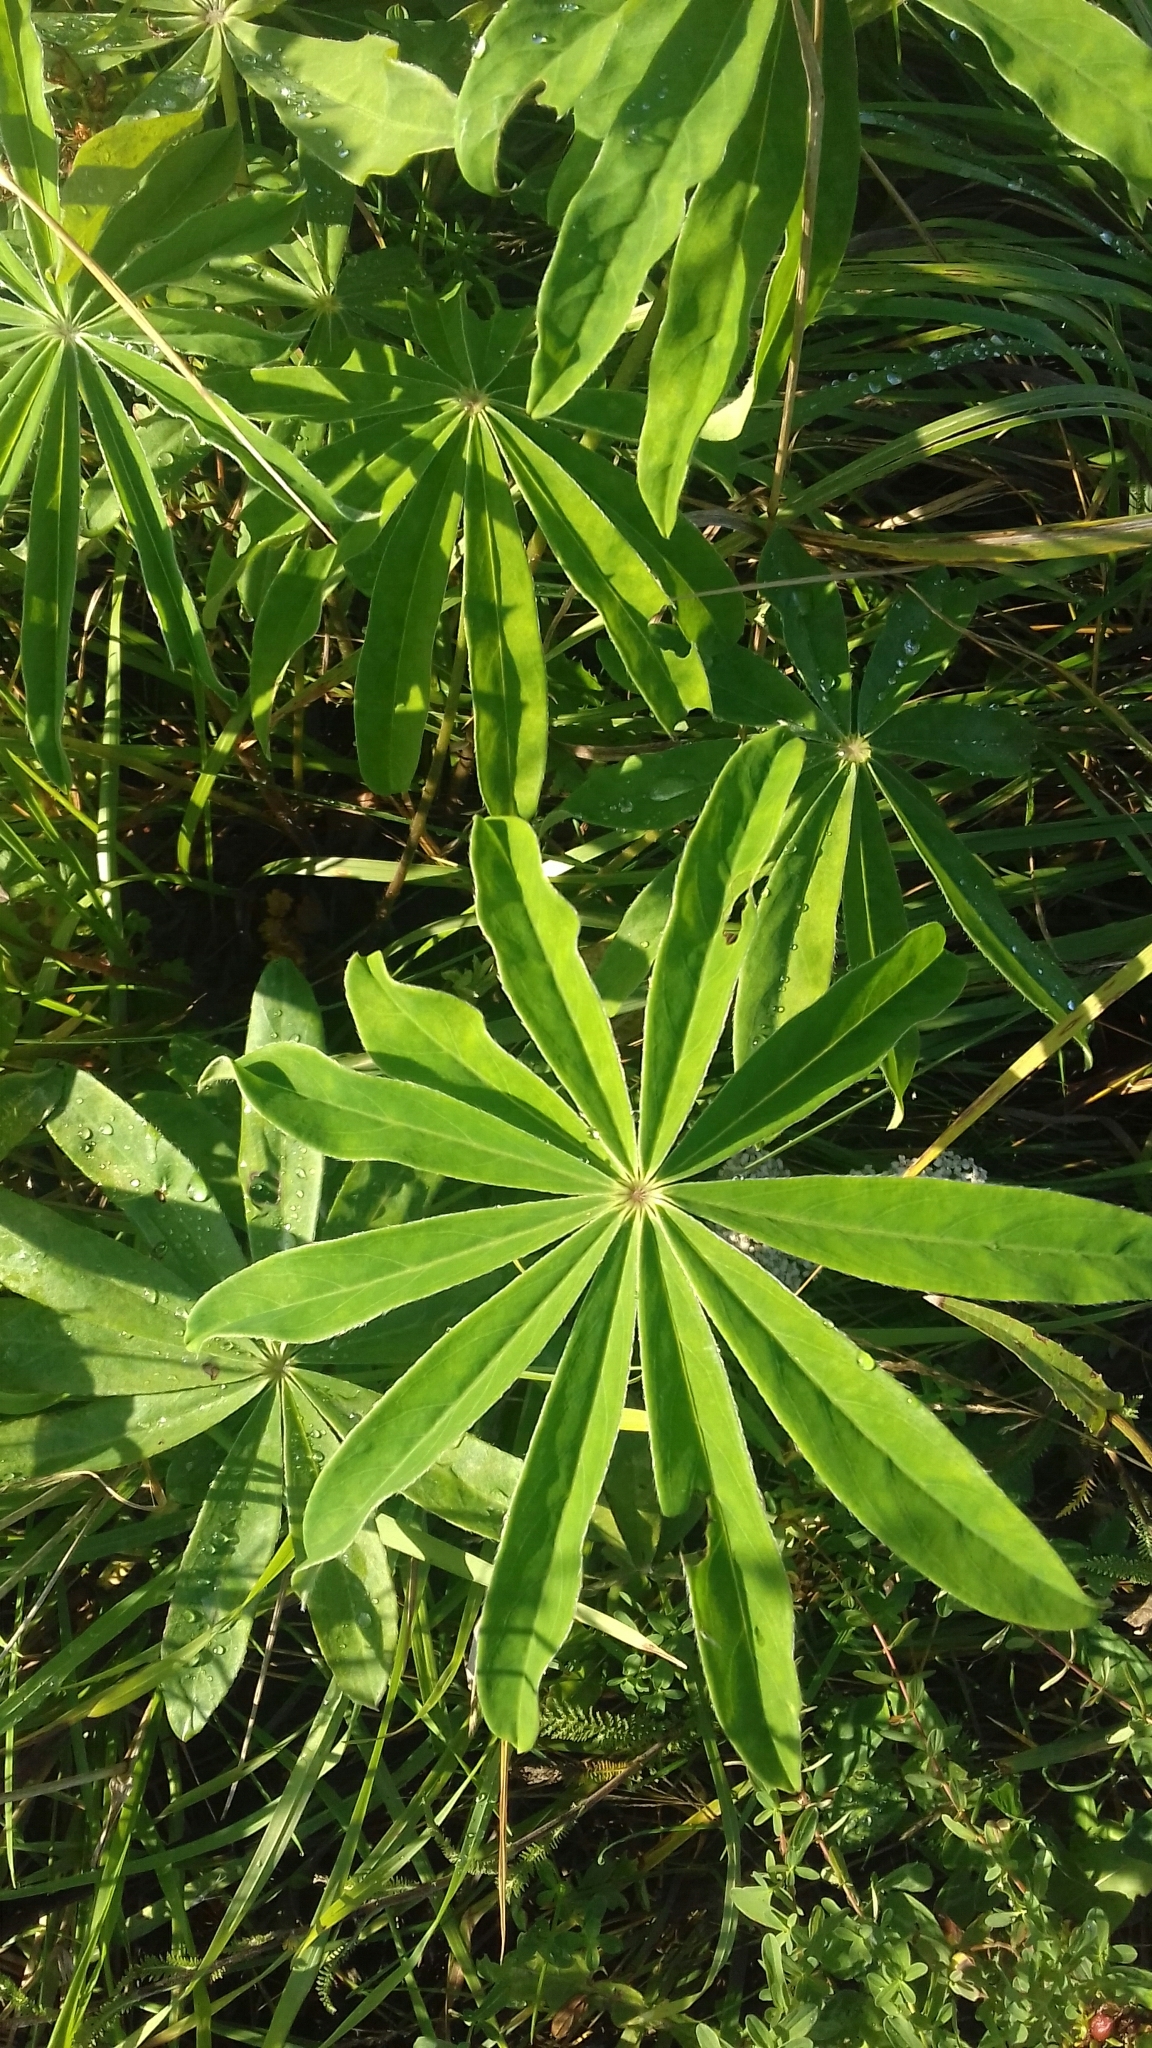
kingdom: Plantae
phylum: Tracheophyta
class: Magnoliopsida
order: Fabales
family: Fabaceae
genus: Lupinus
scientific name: Lupinus polyphyllus
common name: Garden lupin
